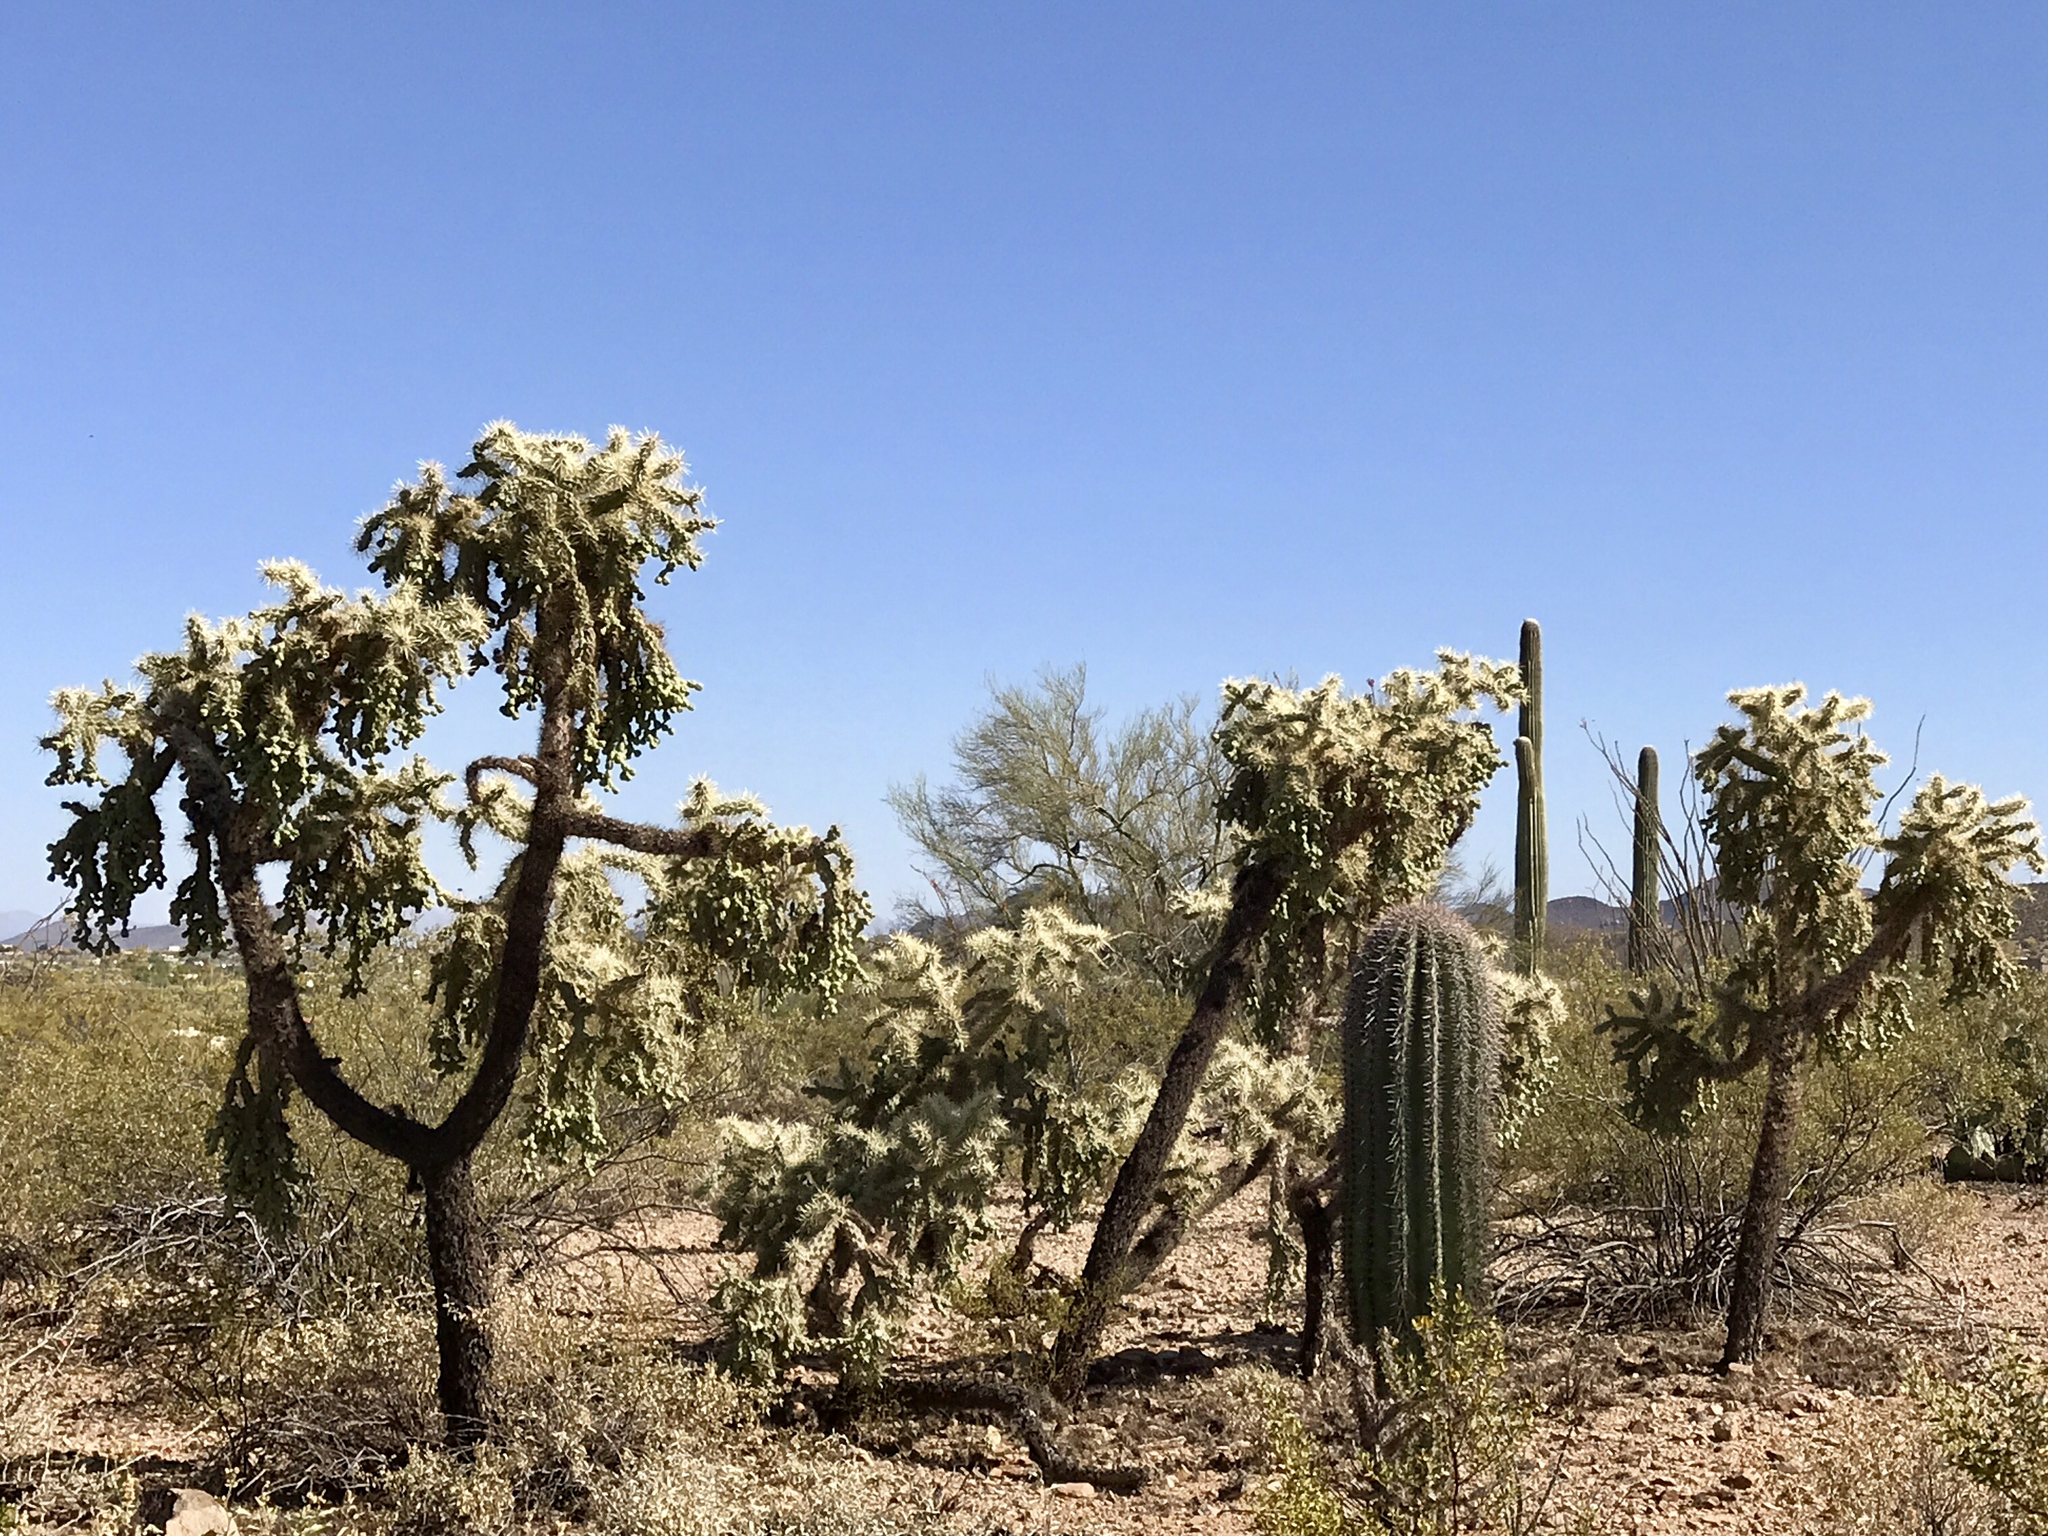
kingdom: Plantae
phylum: Tracheophyta
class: Magnoliopsida
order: Caryophyllales
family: Cactaceae
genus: Cylindropuntia
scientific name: Cylindropuntia fulgida
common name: Jumping cholla
